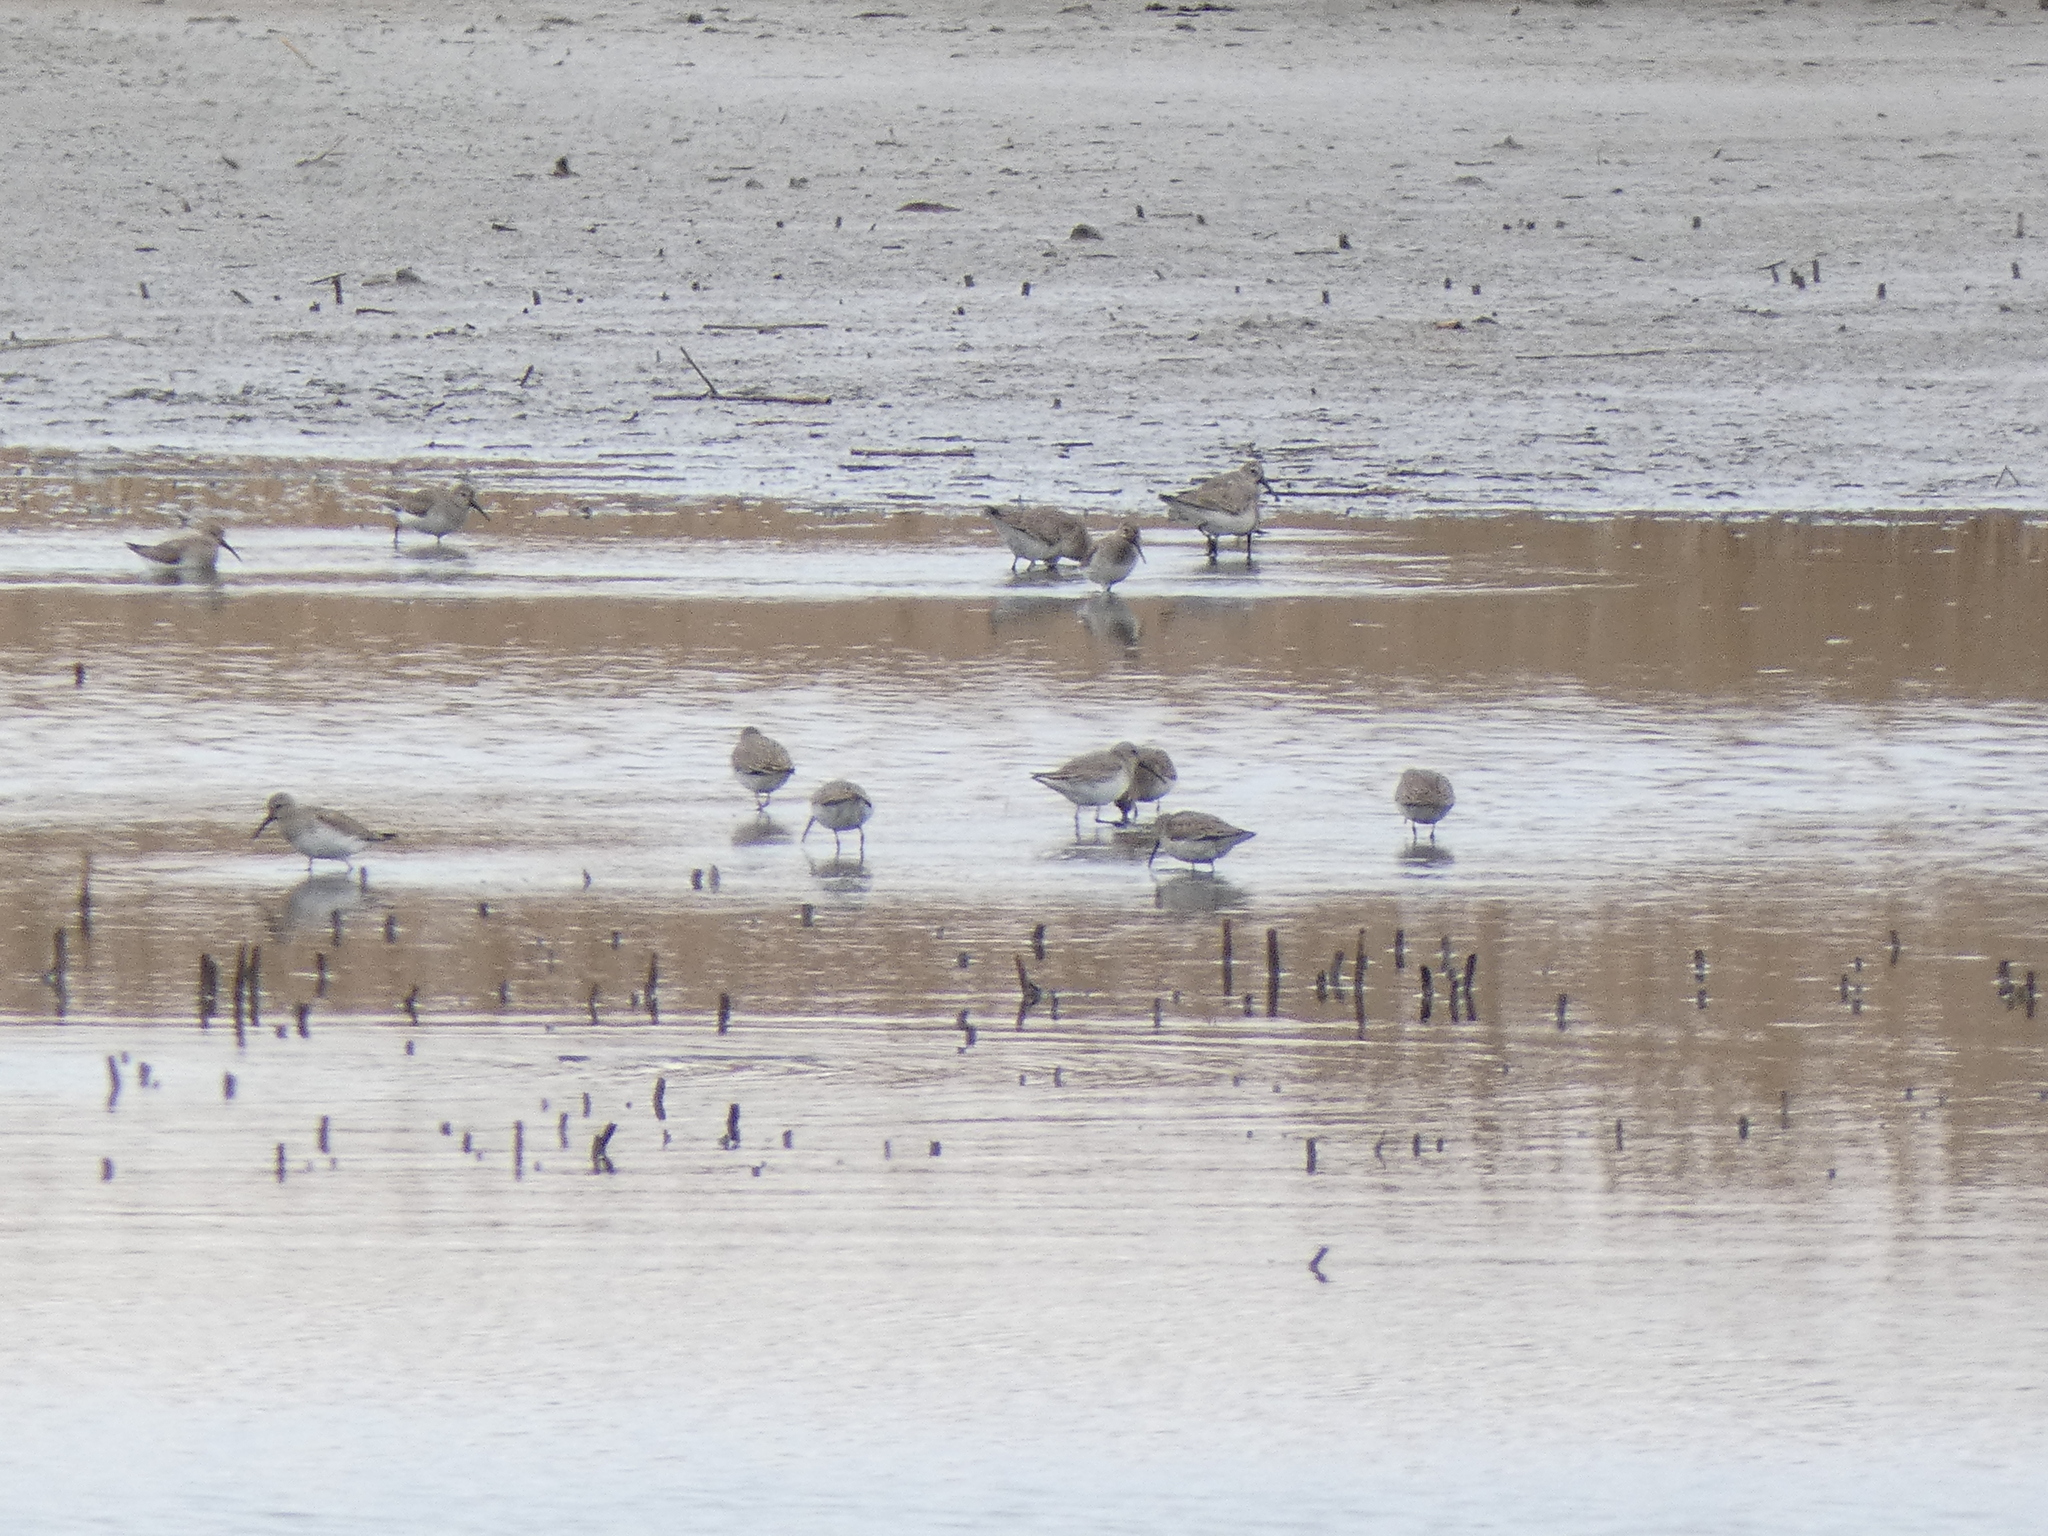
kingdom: Animalia
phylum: Chordata
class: Aves
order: Charadriiformes
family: Scolopacidae
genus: Calidris
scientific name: Calidris alpina
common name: Dunlin
